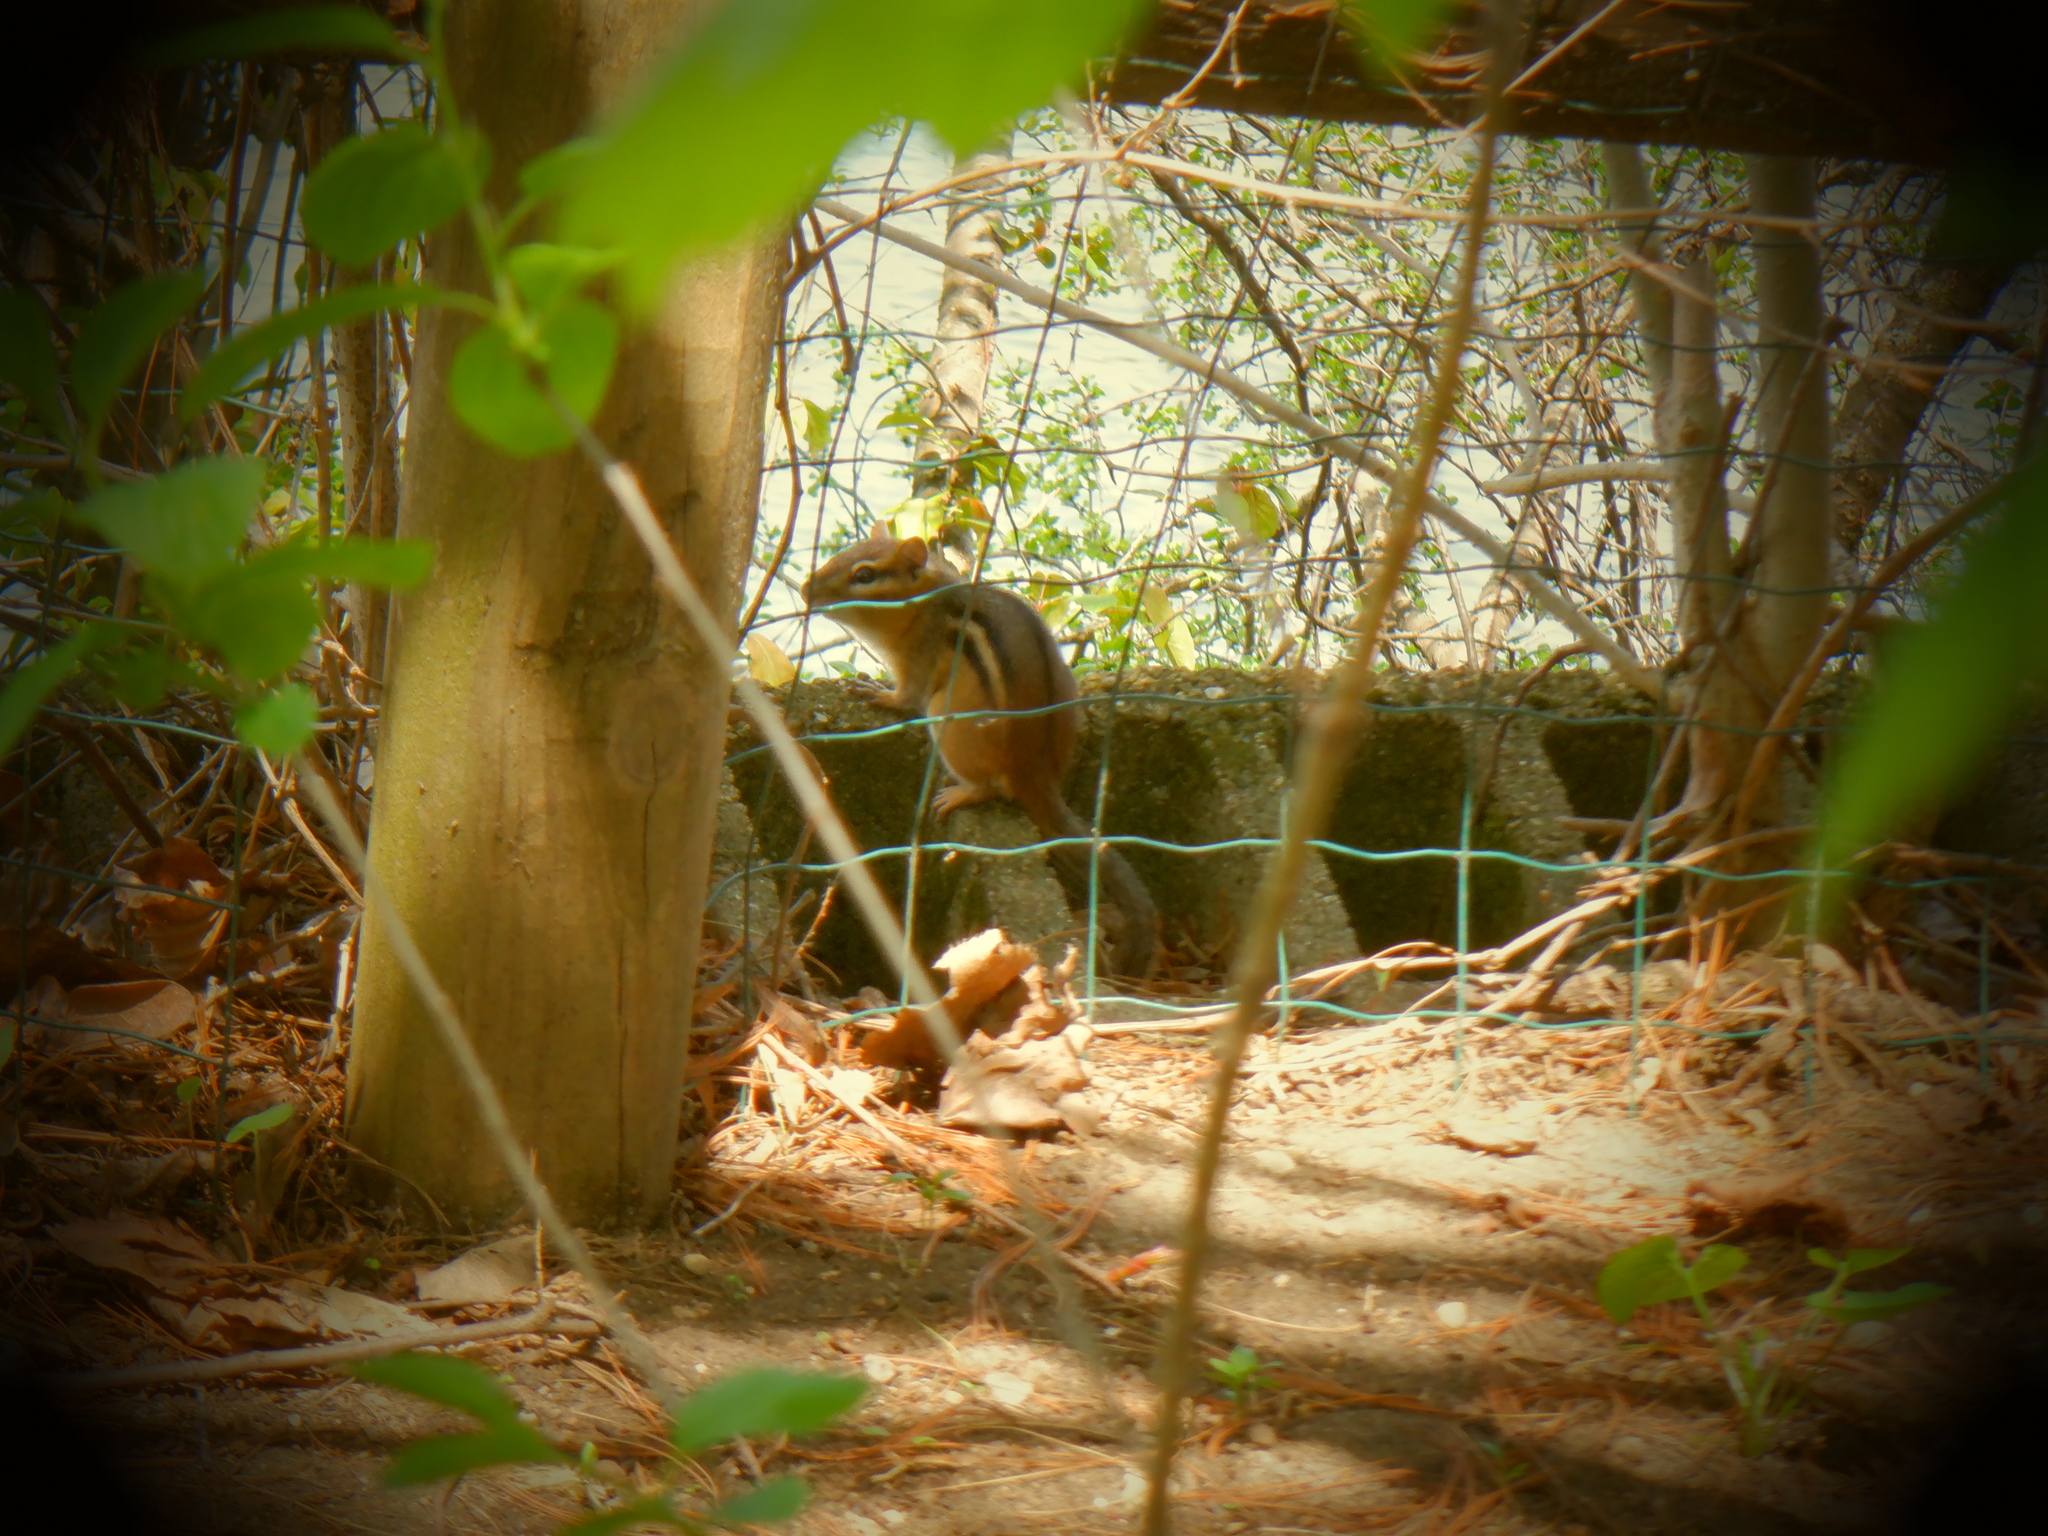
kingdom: Animalia
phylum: Chordata
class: Mammalia
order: Rodentia
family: Sciuridae
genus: Tamias
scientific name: Tamias striatus
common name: Eastern chipmunk
